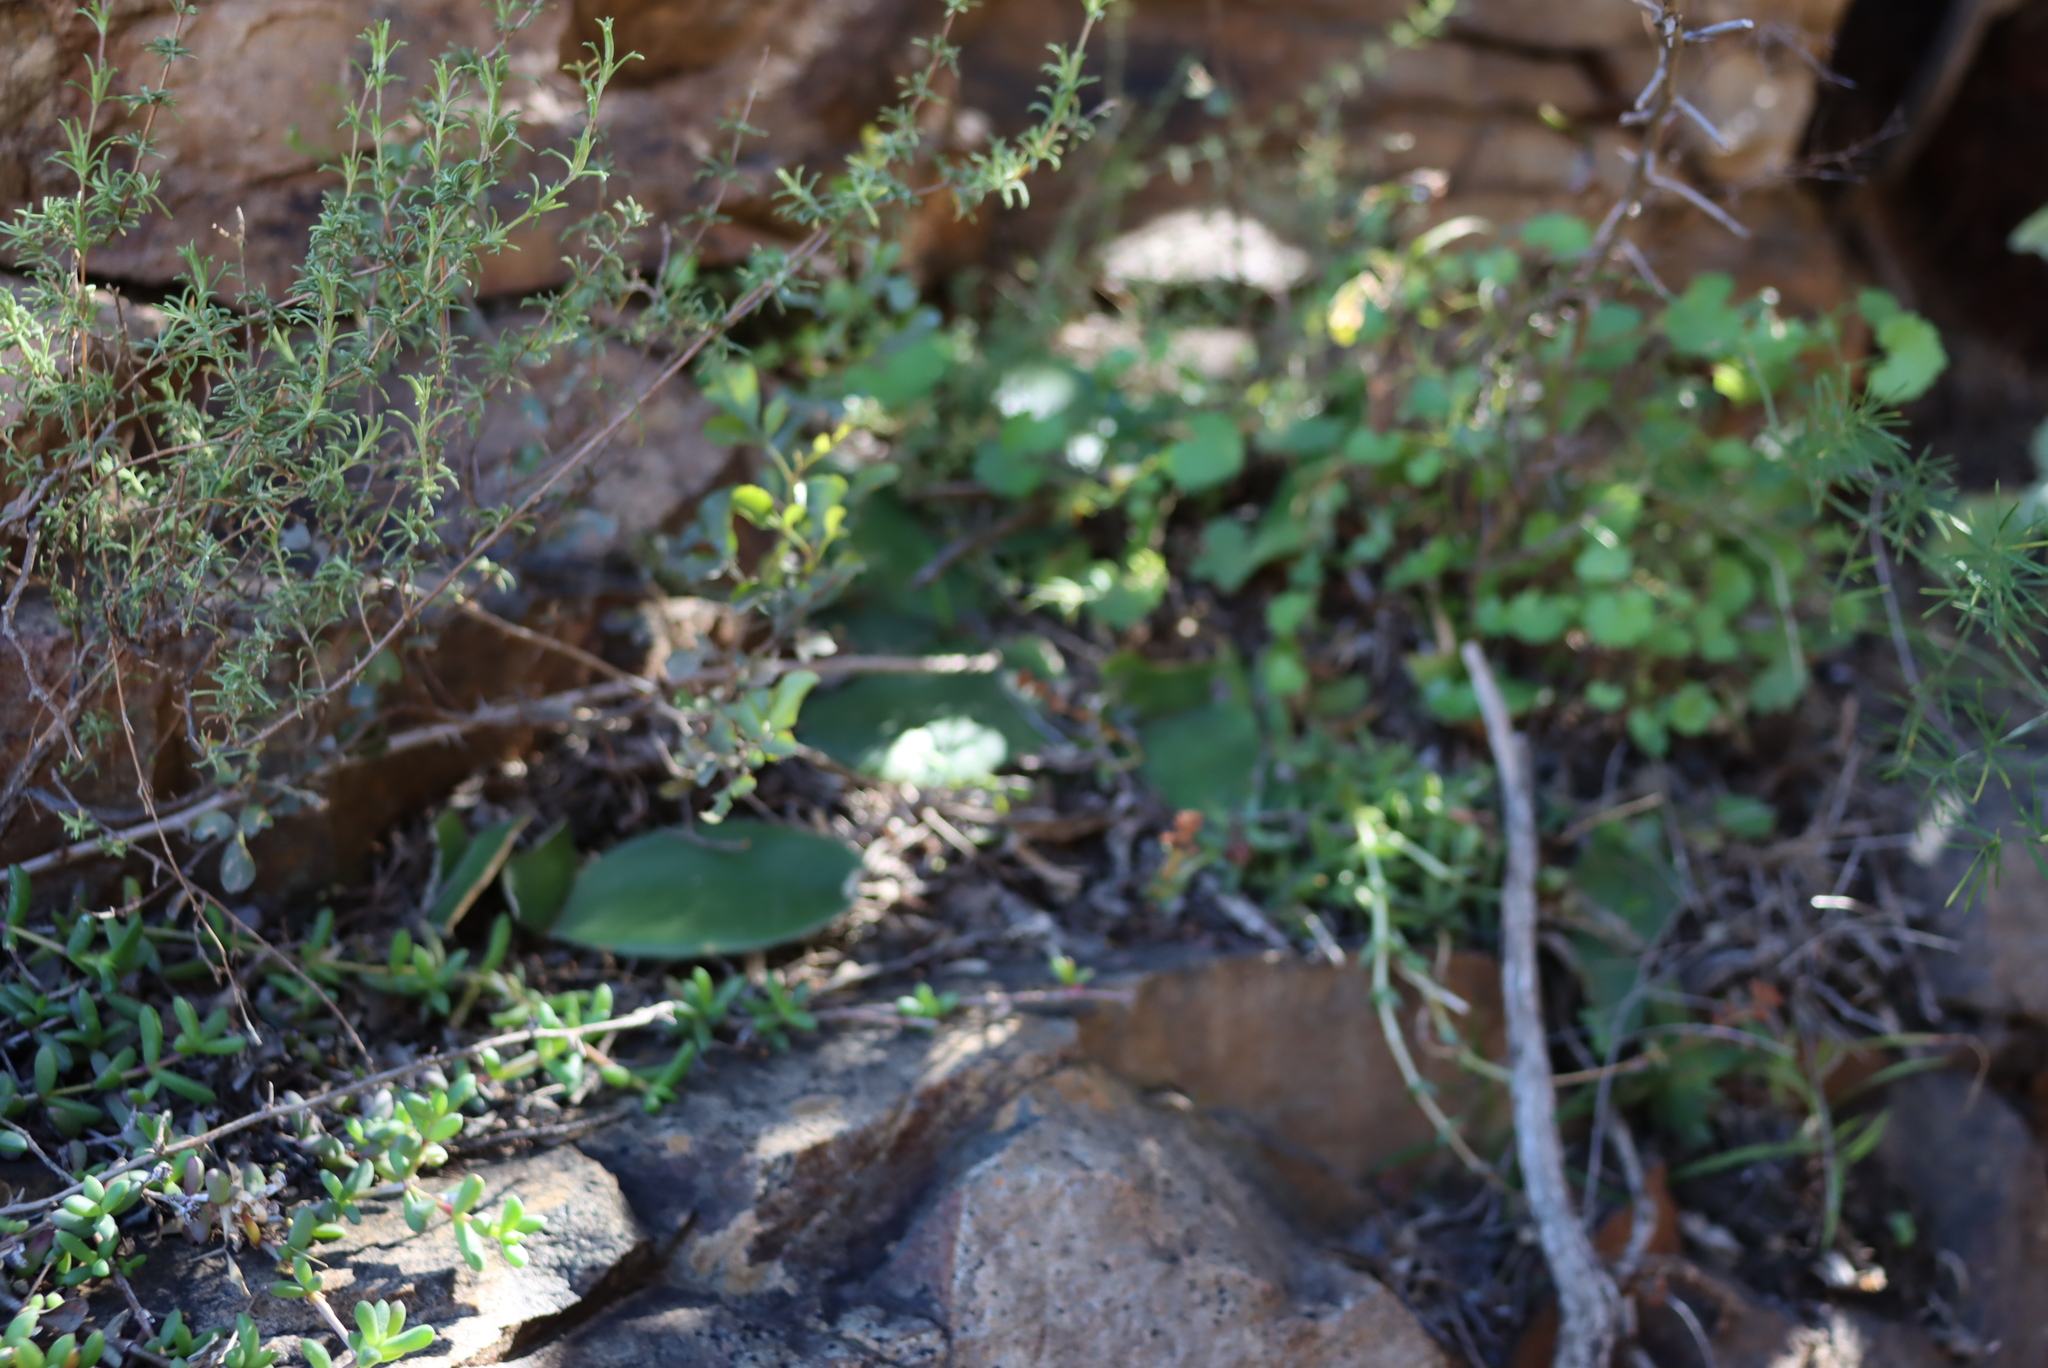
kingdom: Plantae
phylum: Tracheophyta
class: Liliopsida
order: Asparagales
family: Amaryllidaceae
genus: Haemanthus
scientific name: Haemanthus albiflos
